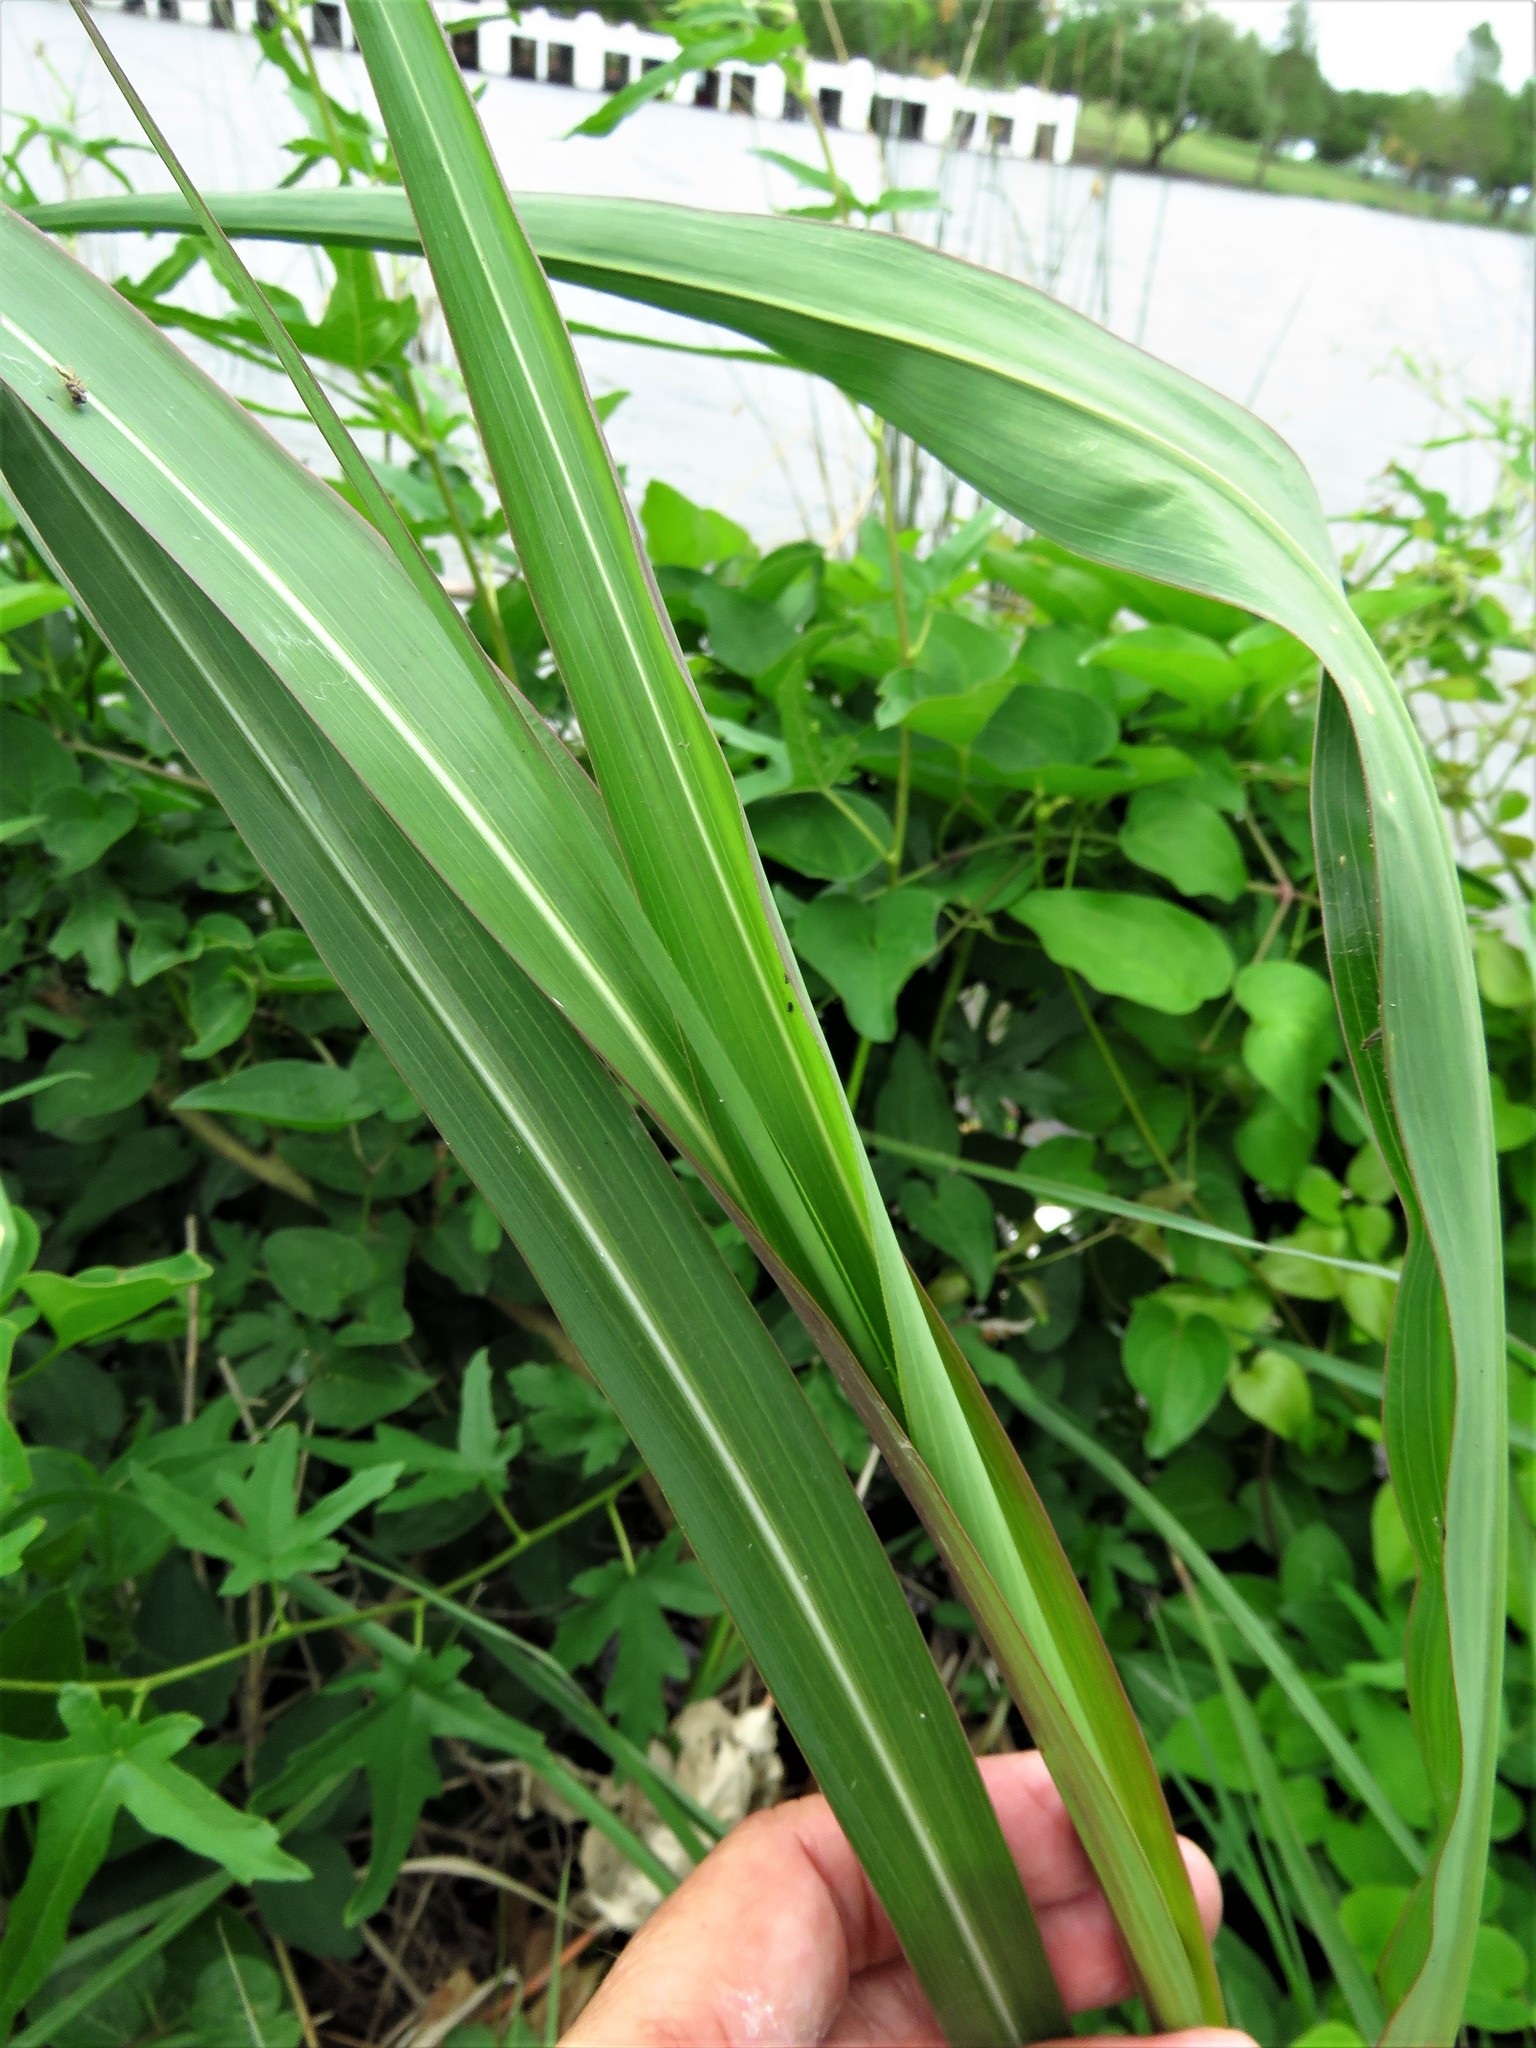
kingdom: Plantae
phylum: Tracheophyta
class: Liliopsida
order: Poales
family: Poaceae
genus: Sorghum
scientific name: Sorghum halepense
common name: Johnson-grass
